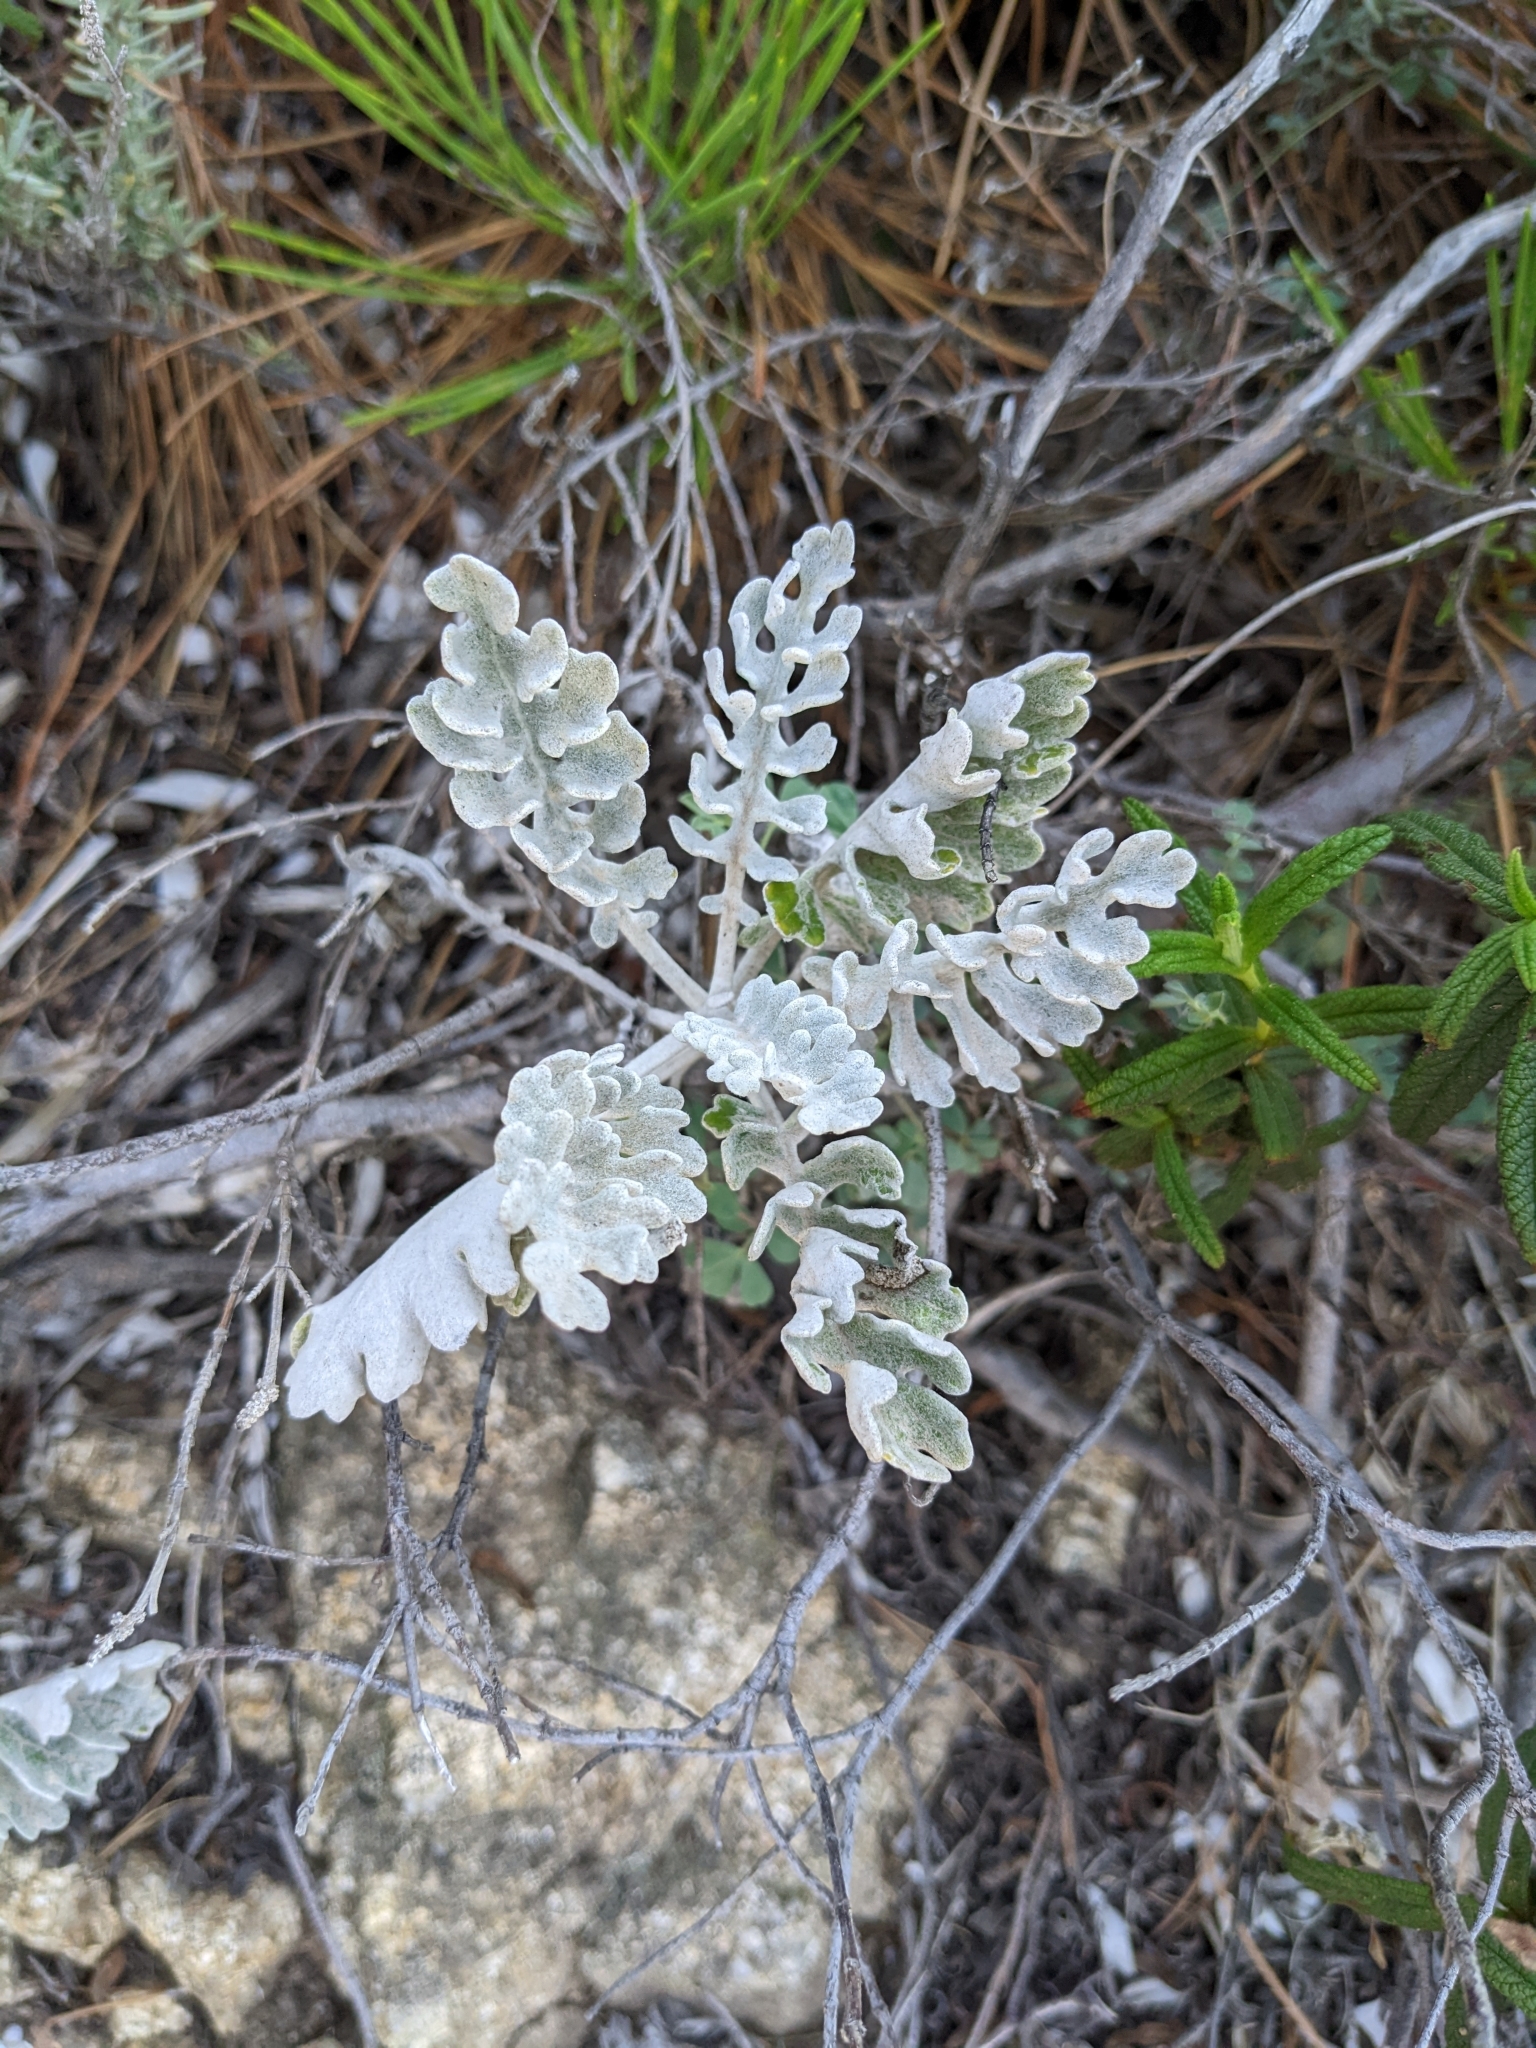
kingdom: Plantae
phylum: Tracheophyta
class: Magnoliopsida
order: Asterales
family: Asteraceae
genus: Jacobaea
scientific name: Jacobaea maritima
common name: Silver ragwort
